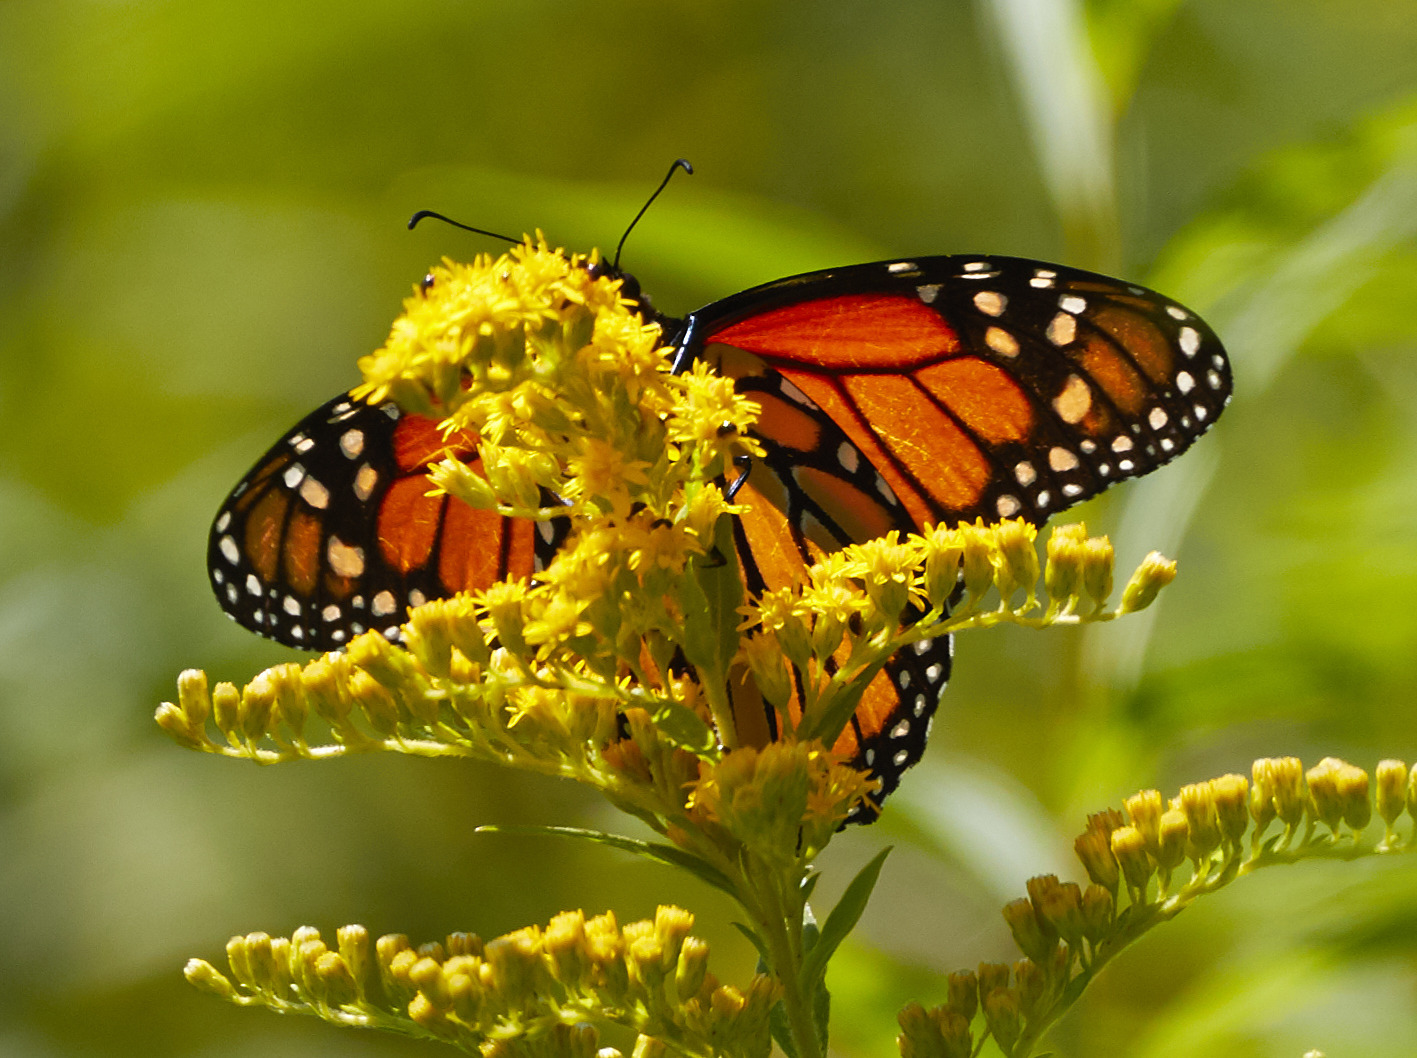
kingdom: Animalia
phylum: Arthropoda
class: Insecta
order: Lepidoptera
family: Nymphalidae
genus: Danaus
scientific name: Danaus plexippus
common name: Monarch
